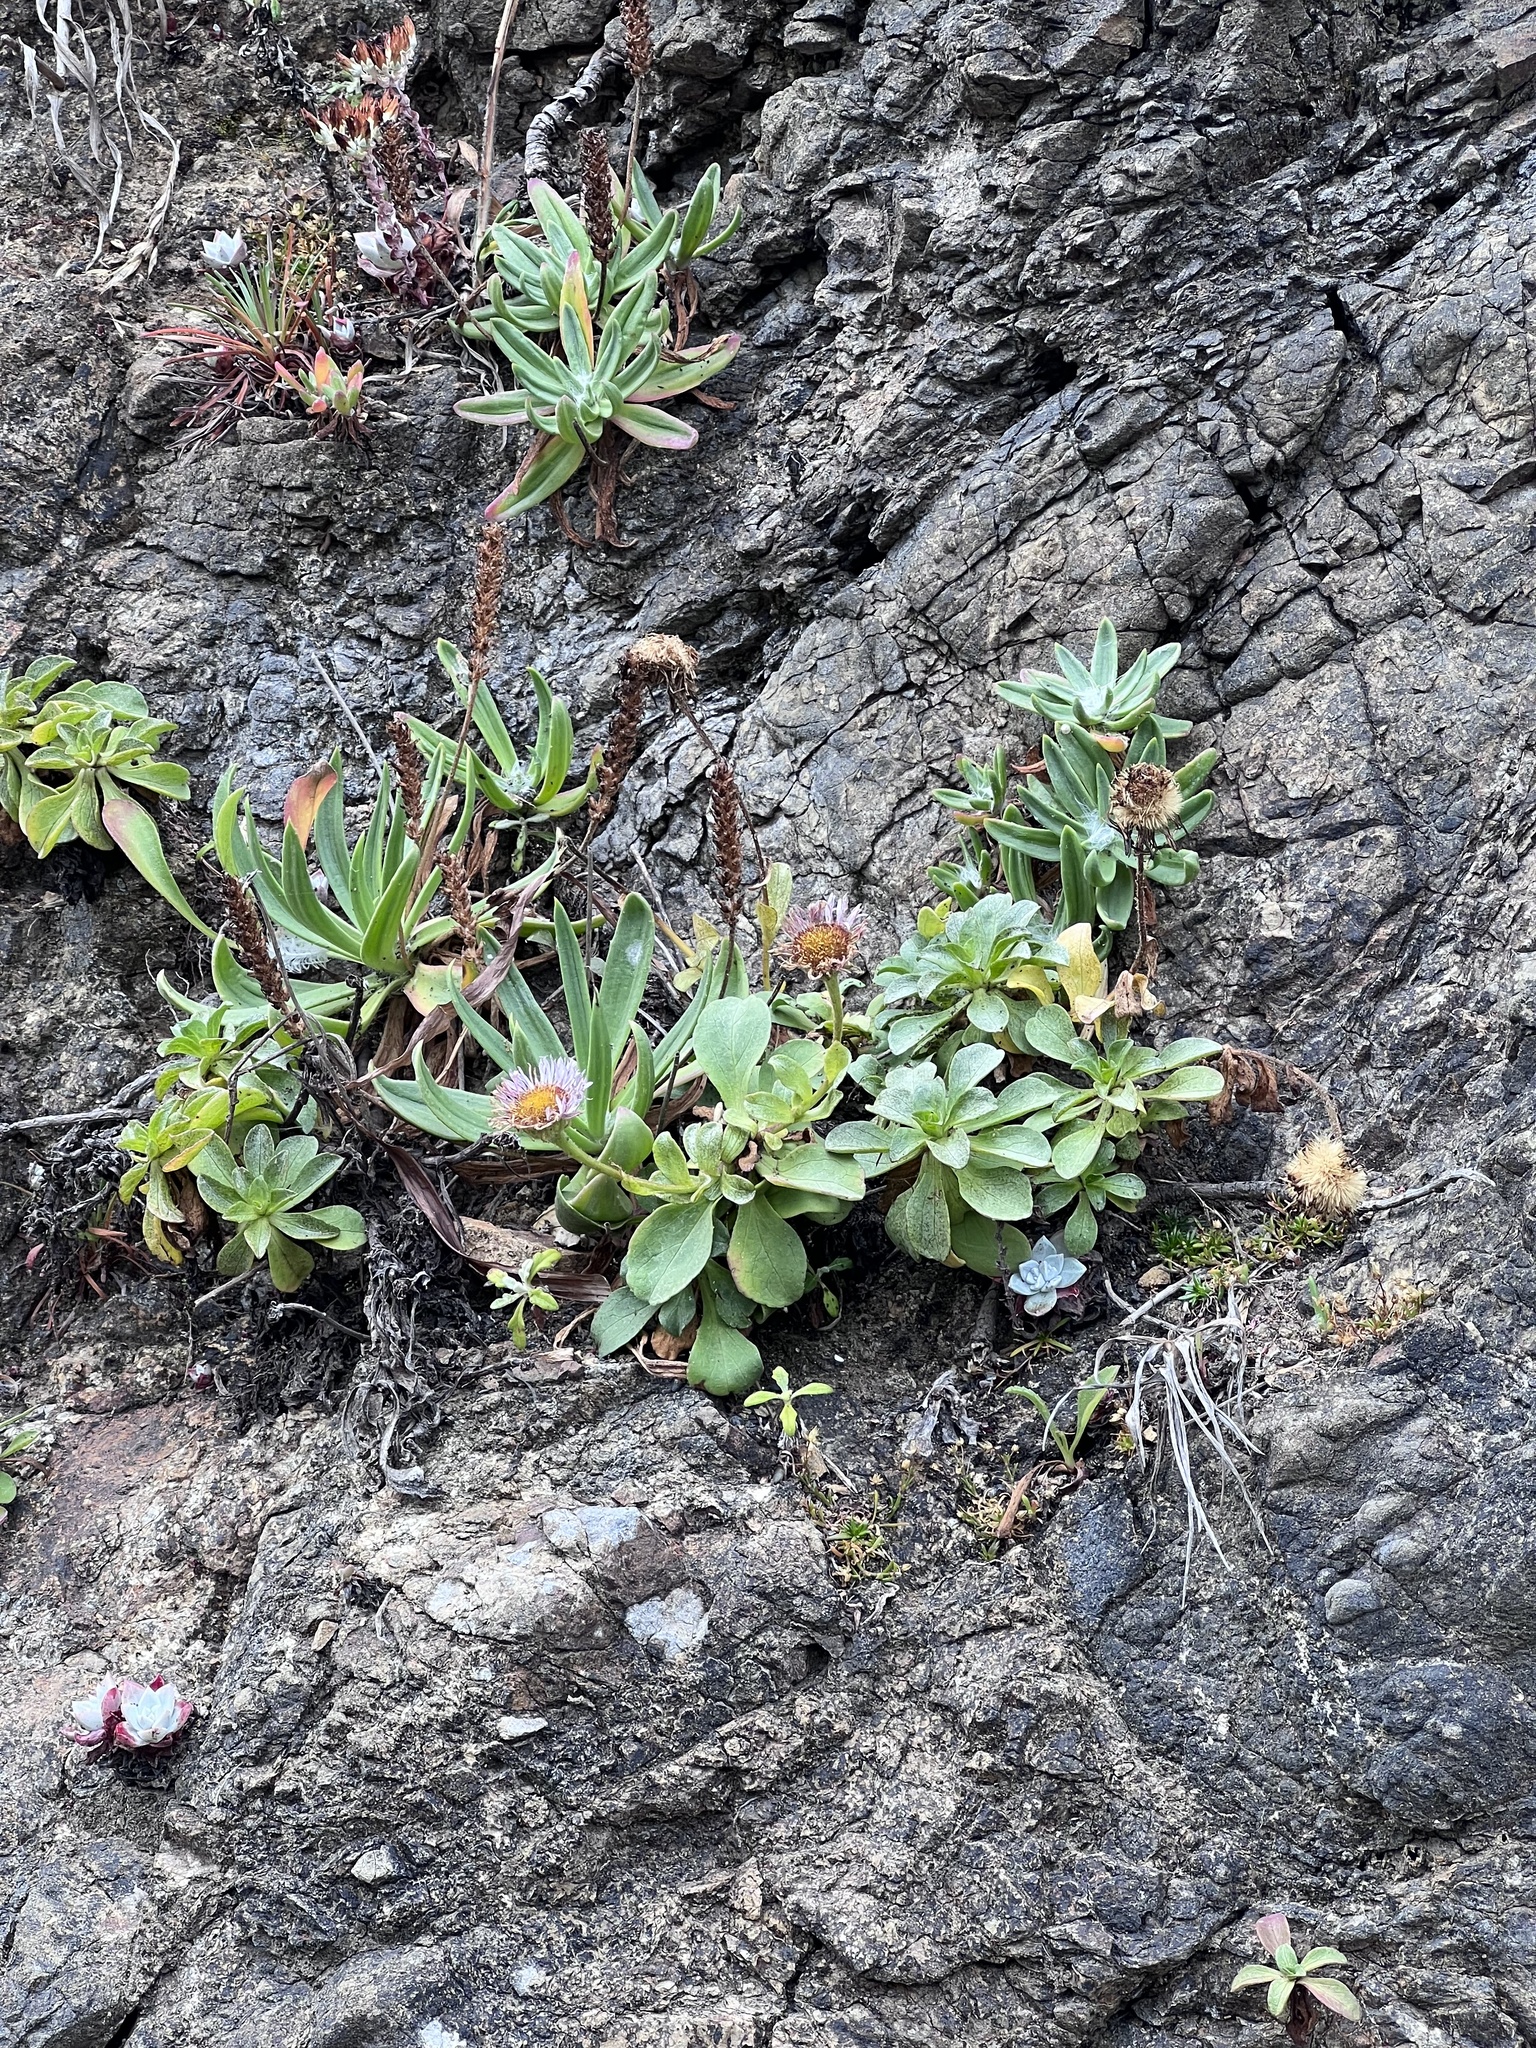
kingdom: Plantae
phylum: Tracheophyta
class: Magnoliopsida
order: Asterales
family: Asteraceae
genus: Erigeron
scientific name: Erigeron glaucus
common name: Seaside daisy
